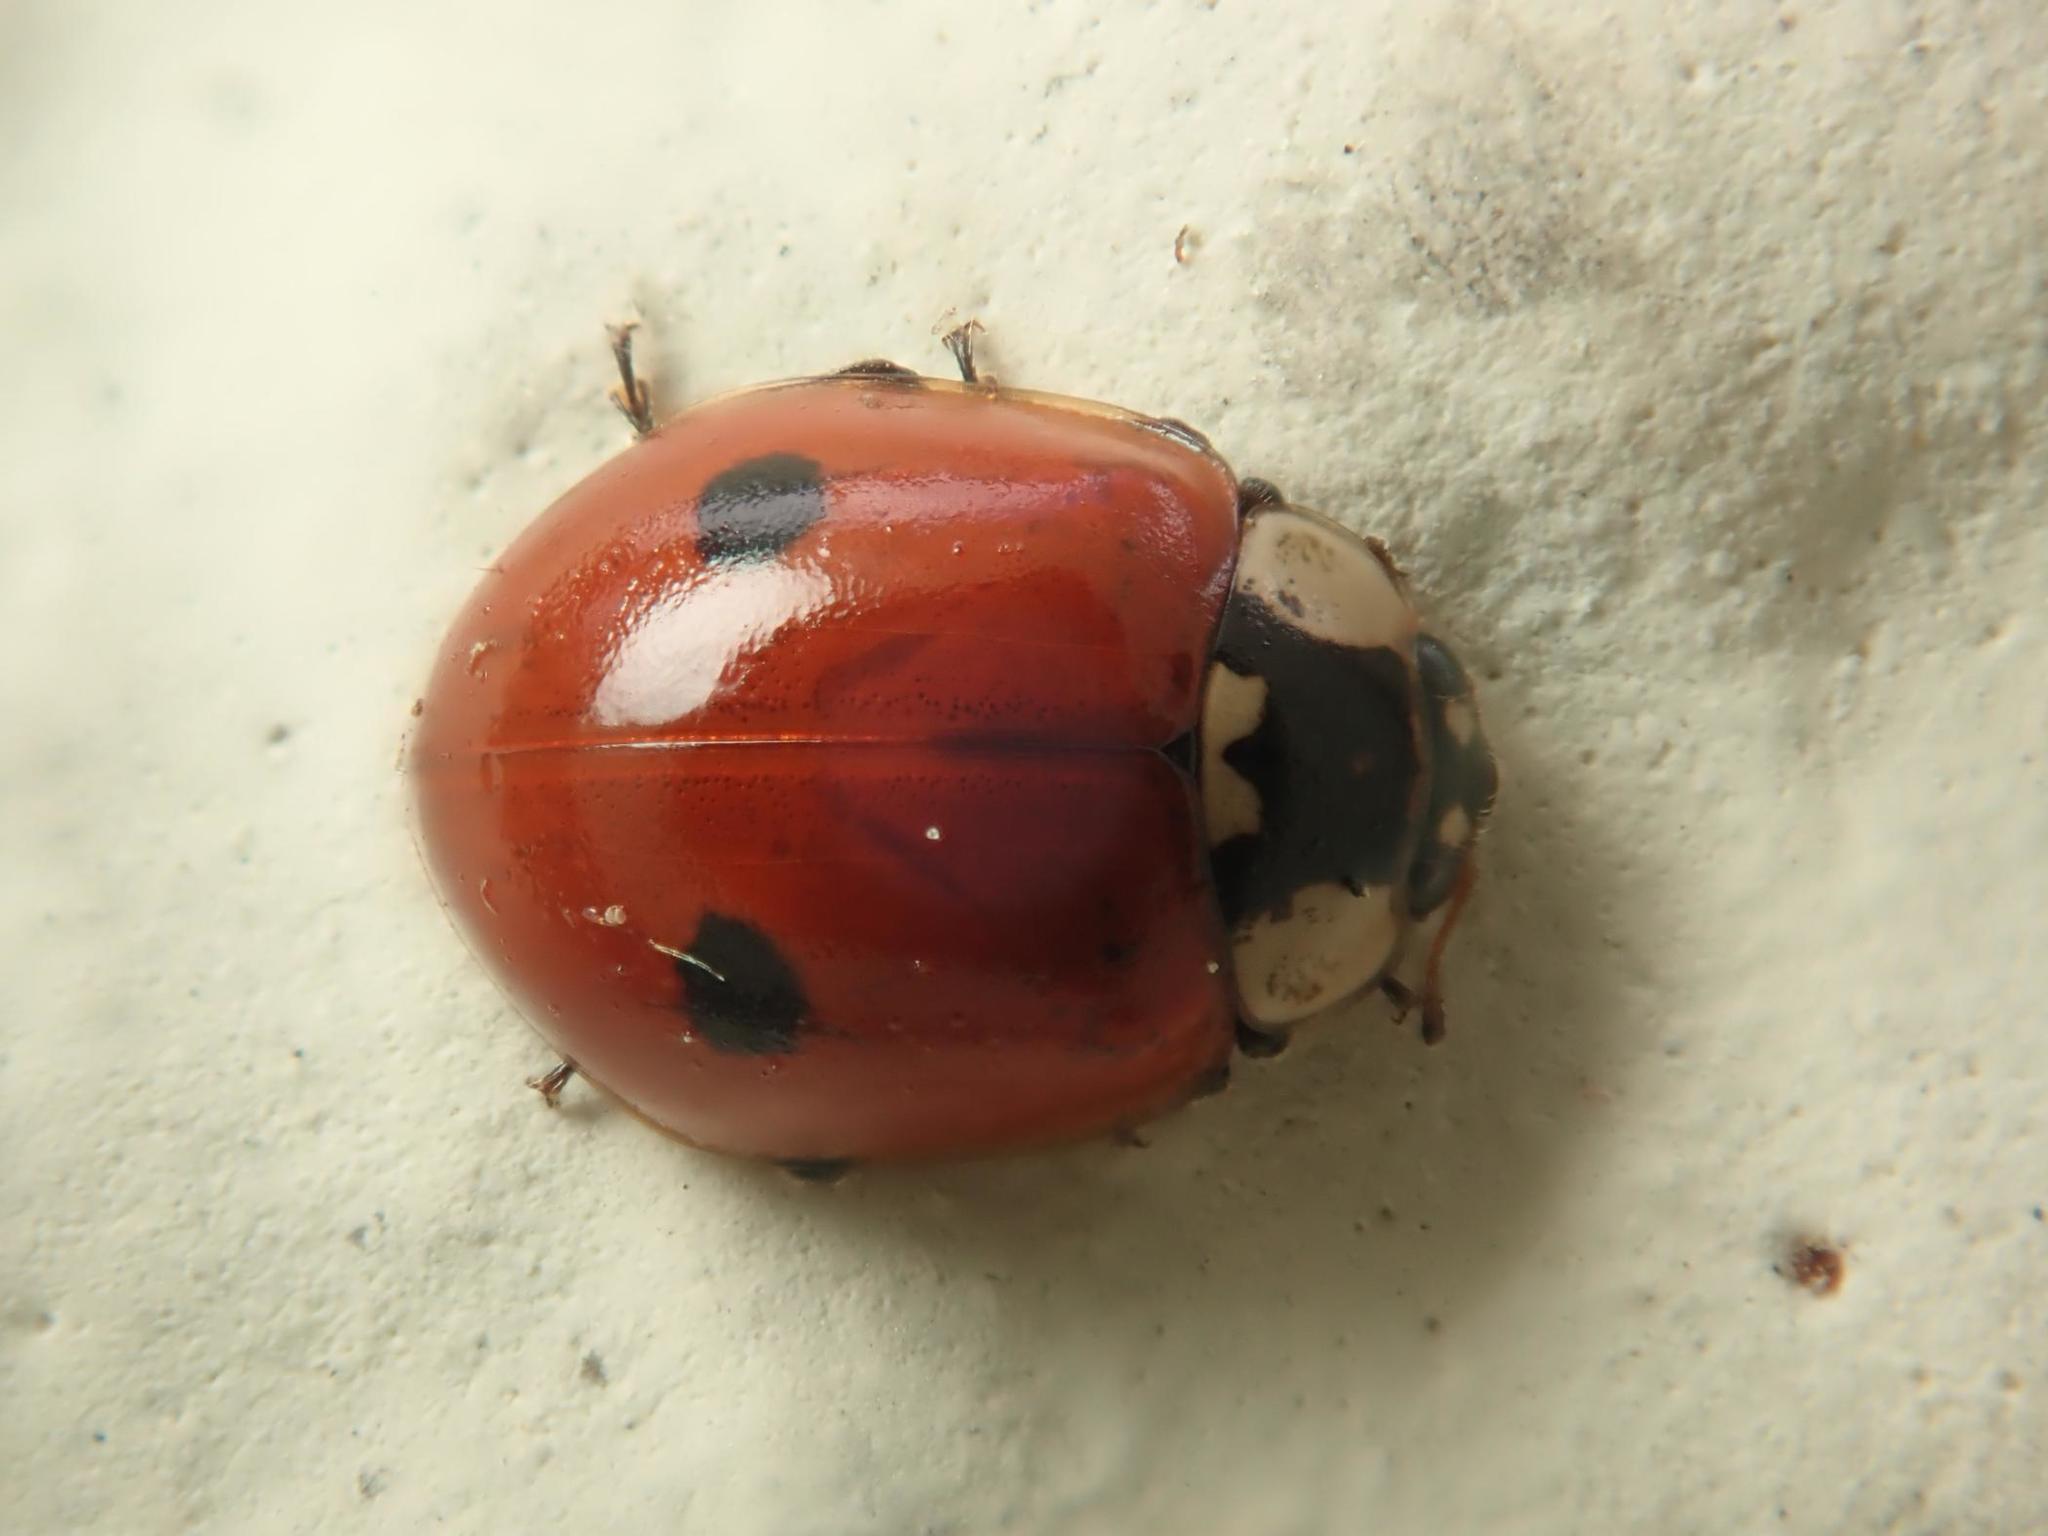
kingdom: Animalia
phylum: Arthropoda
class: Insecta
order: Coleoptera
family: Coccinellidae
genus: Adalia
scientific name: Adalia bipunctata
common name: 2-spot ladybird
